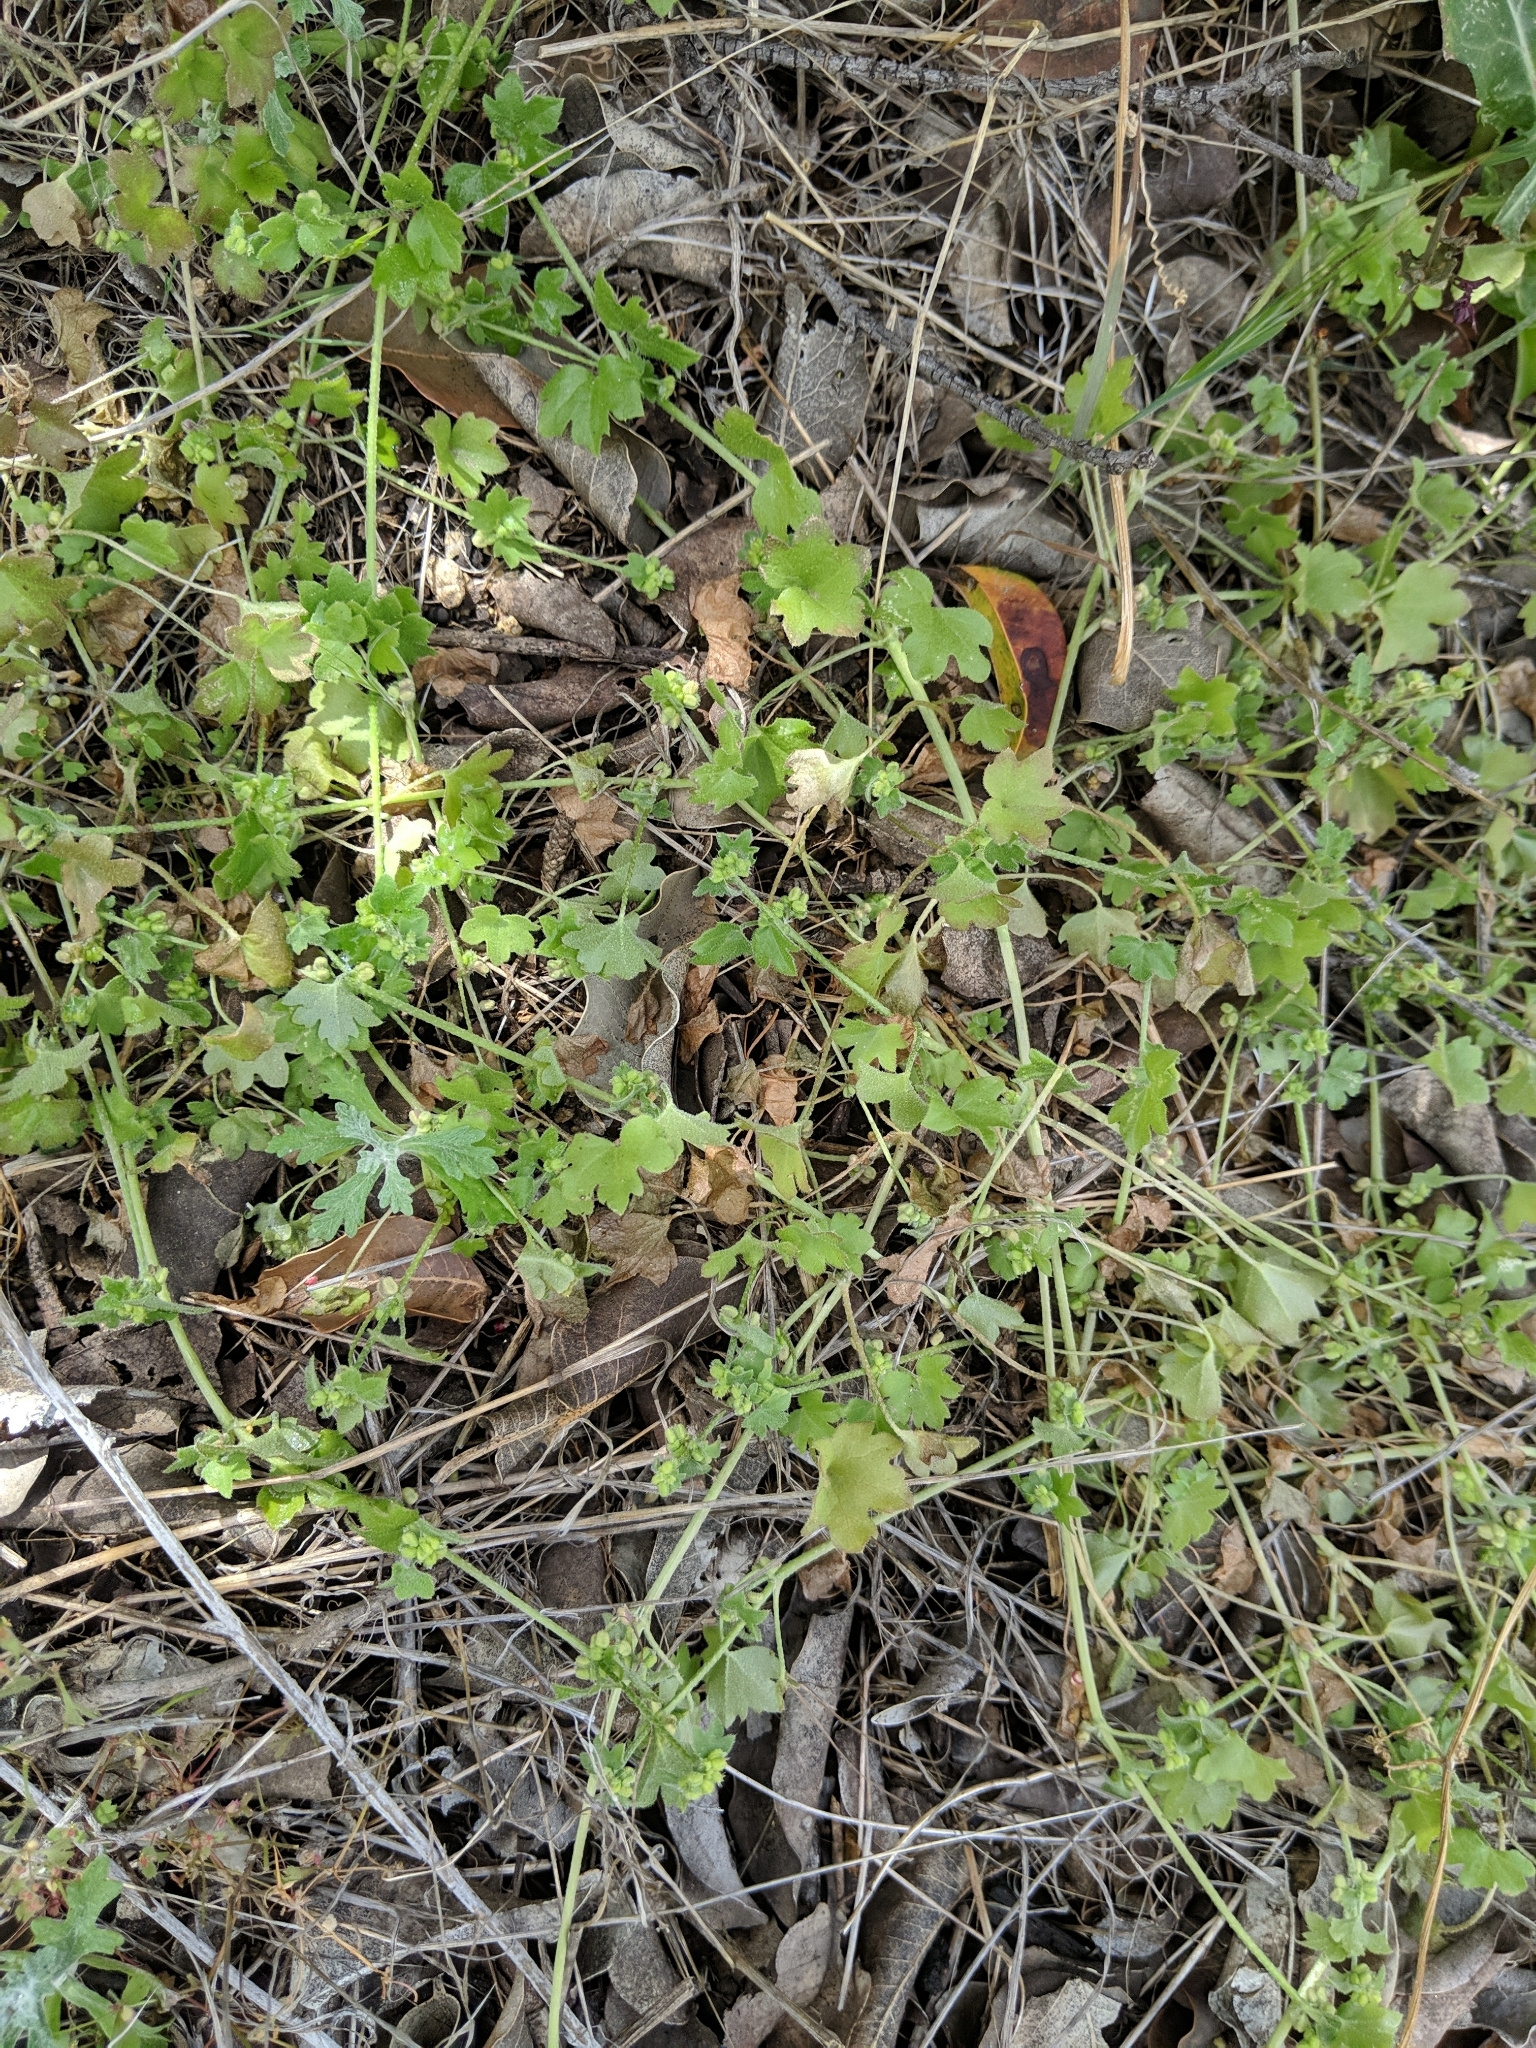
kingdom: Plantae
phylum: Tracheophyta
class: Magnoliopsida
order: Apiales
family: Apiaceae
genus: Bowlesia
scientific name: Bowlesia incana
